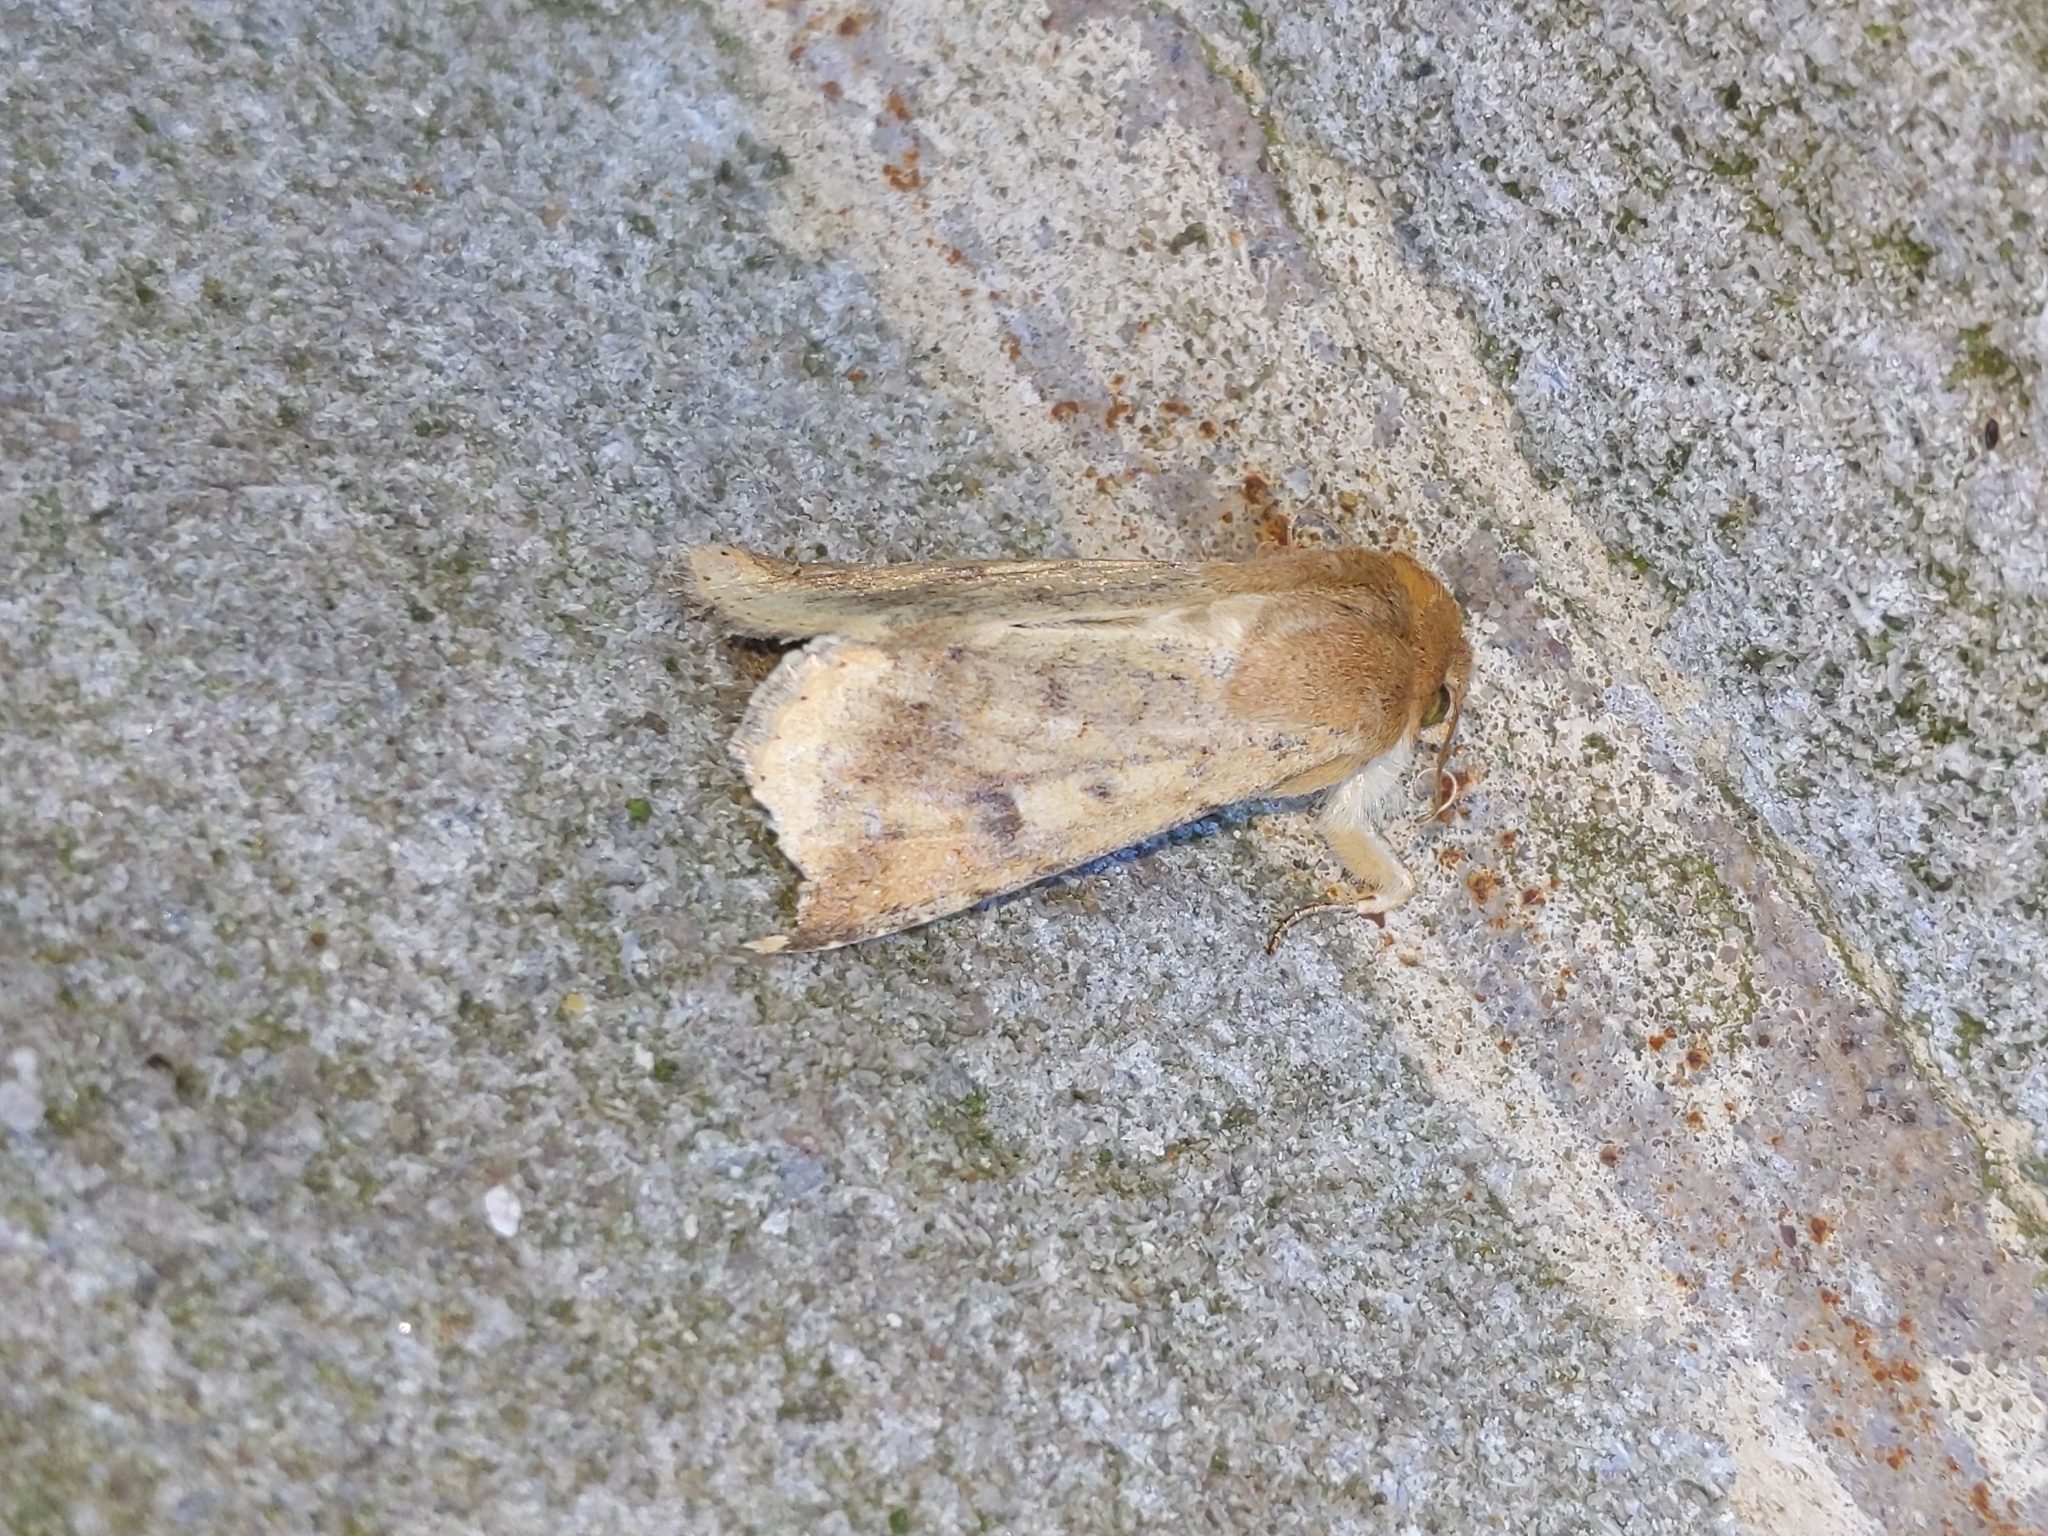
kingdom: Animalia
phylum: Arthropoda
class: Insecta
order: Lepidoptera
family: Noctuidae
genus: Helicoverpa
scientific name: Helicoverpa zea
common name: Bollworm
